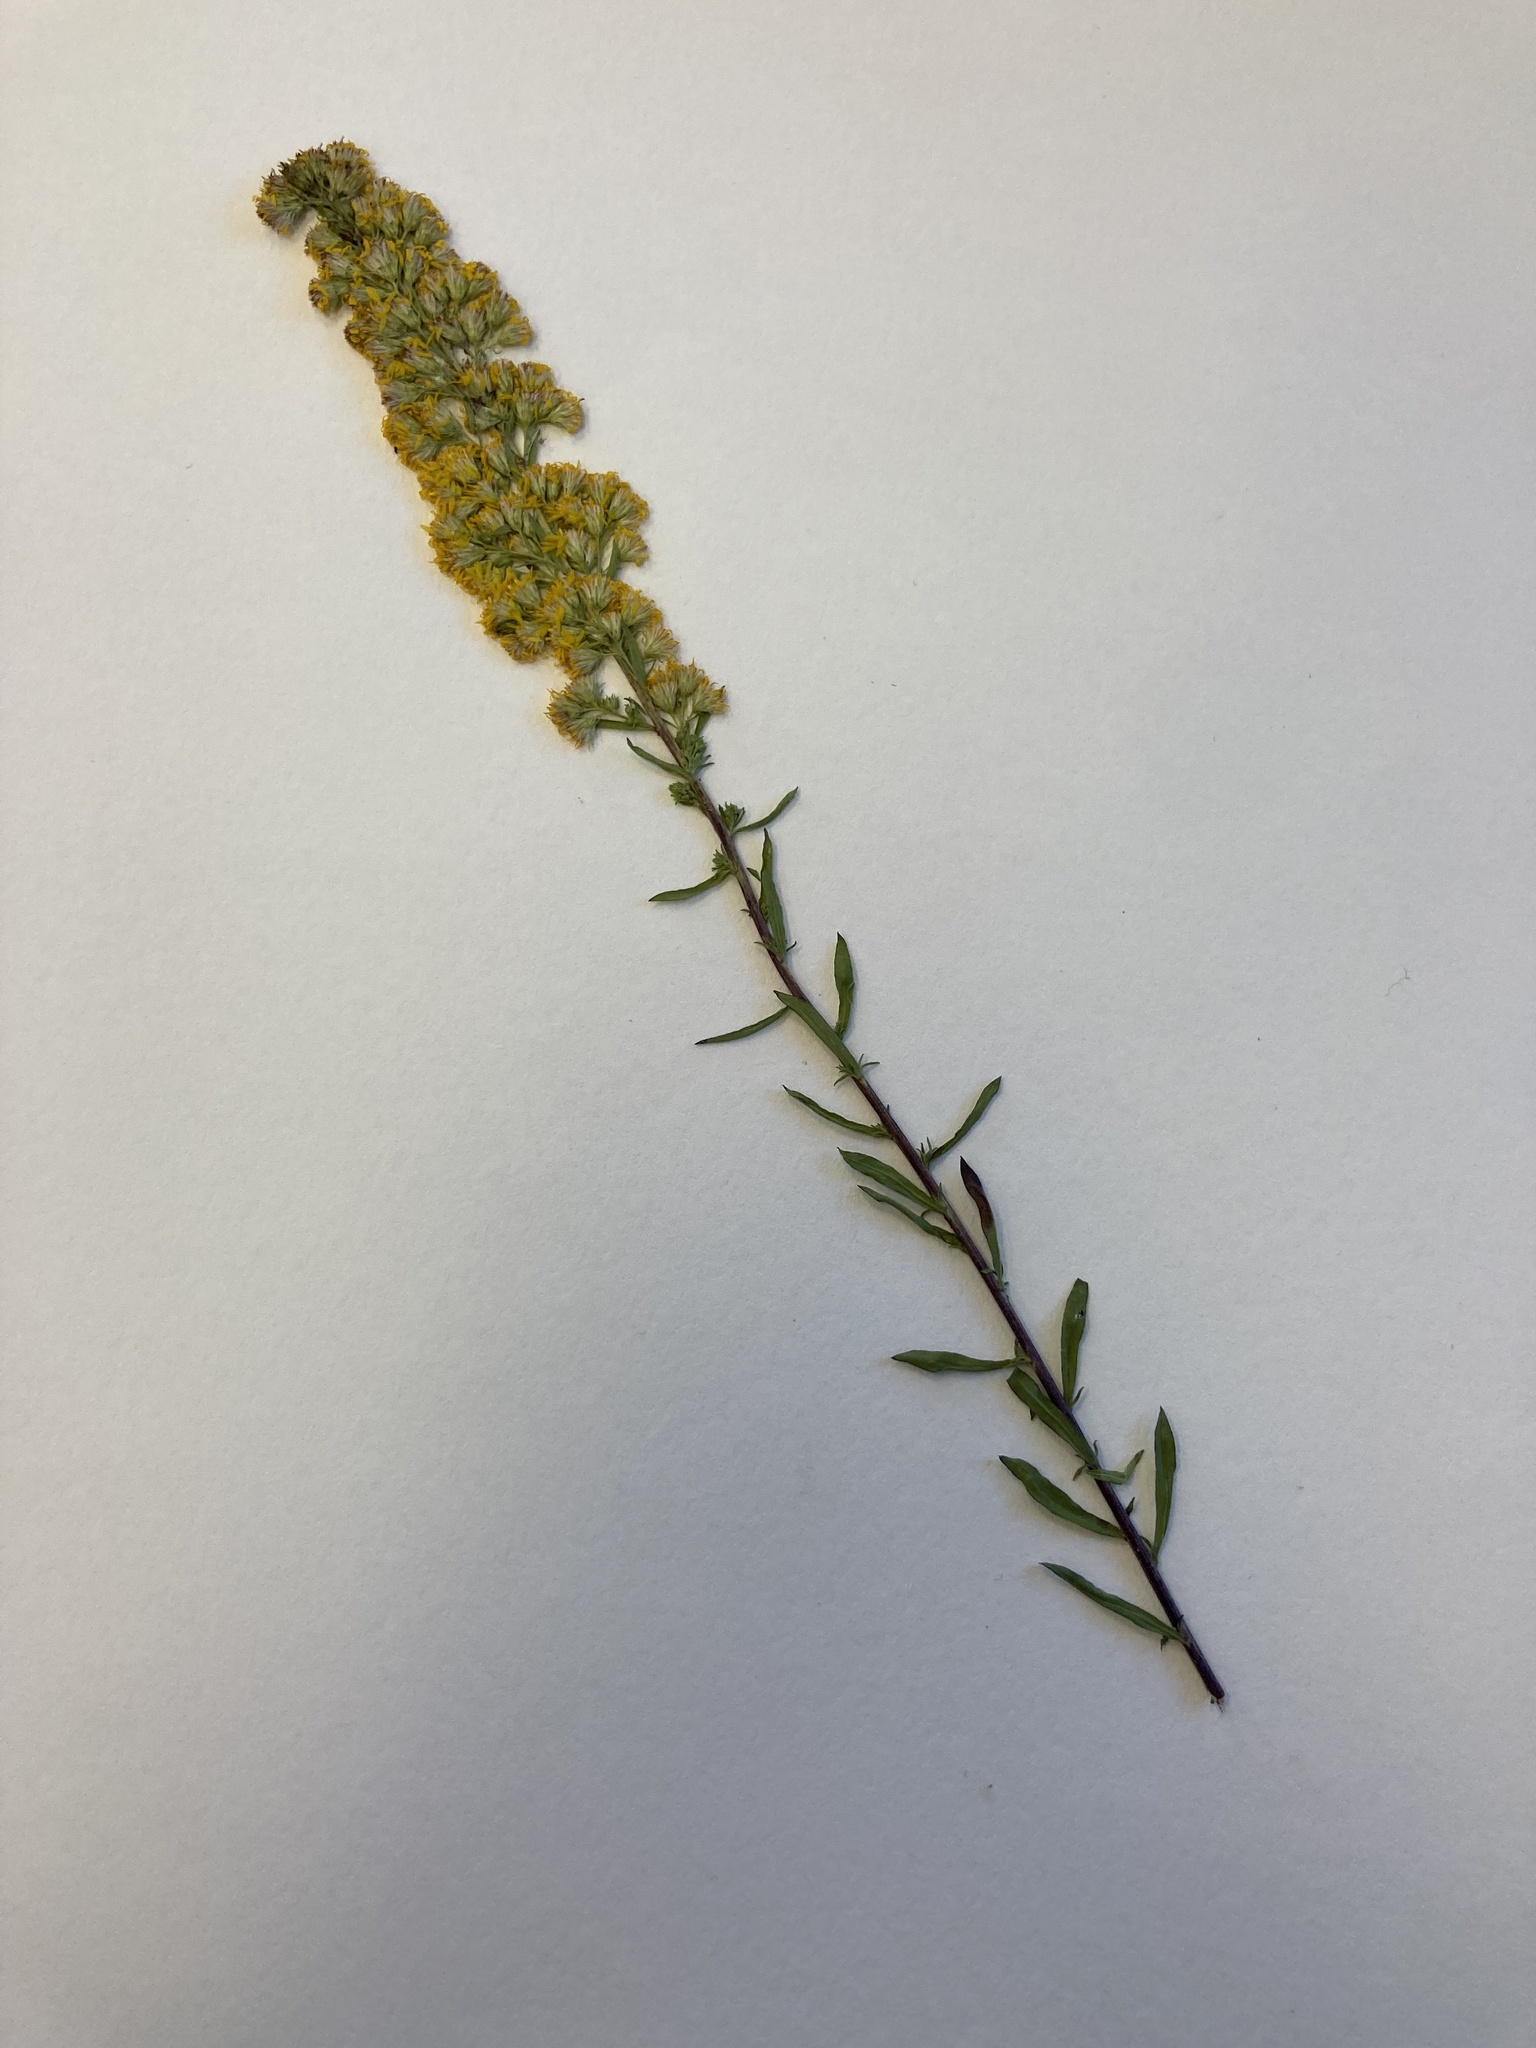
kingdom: Plantae
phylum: Tracheophyta
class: Magnoliopsida
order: Asterales
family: Asteraceae
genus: Solidago
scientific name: Solidago puberula
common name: Downy goldenrod
